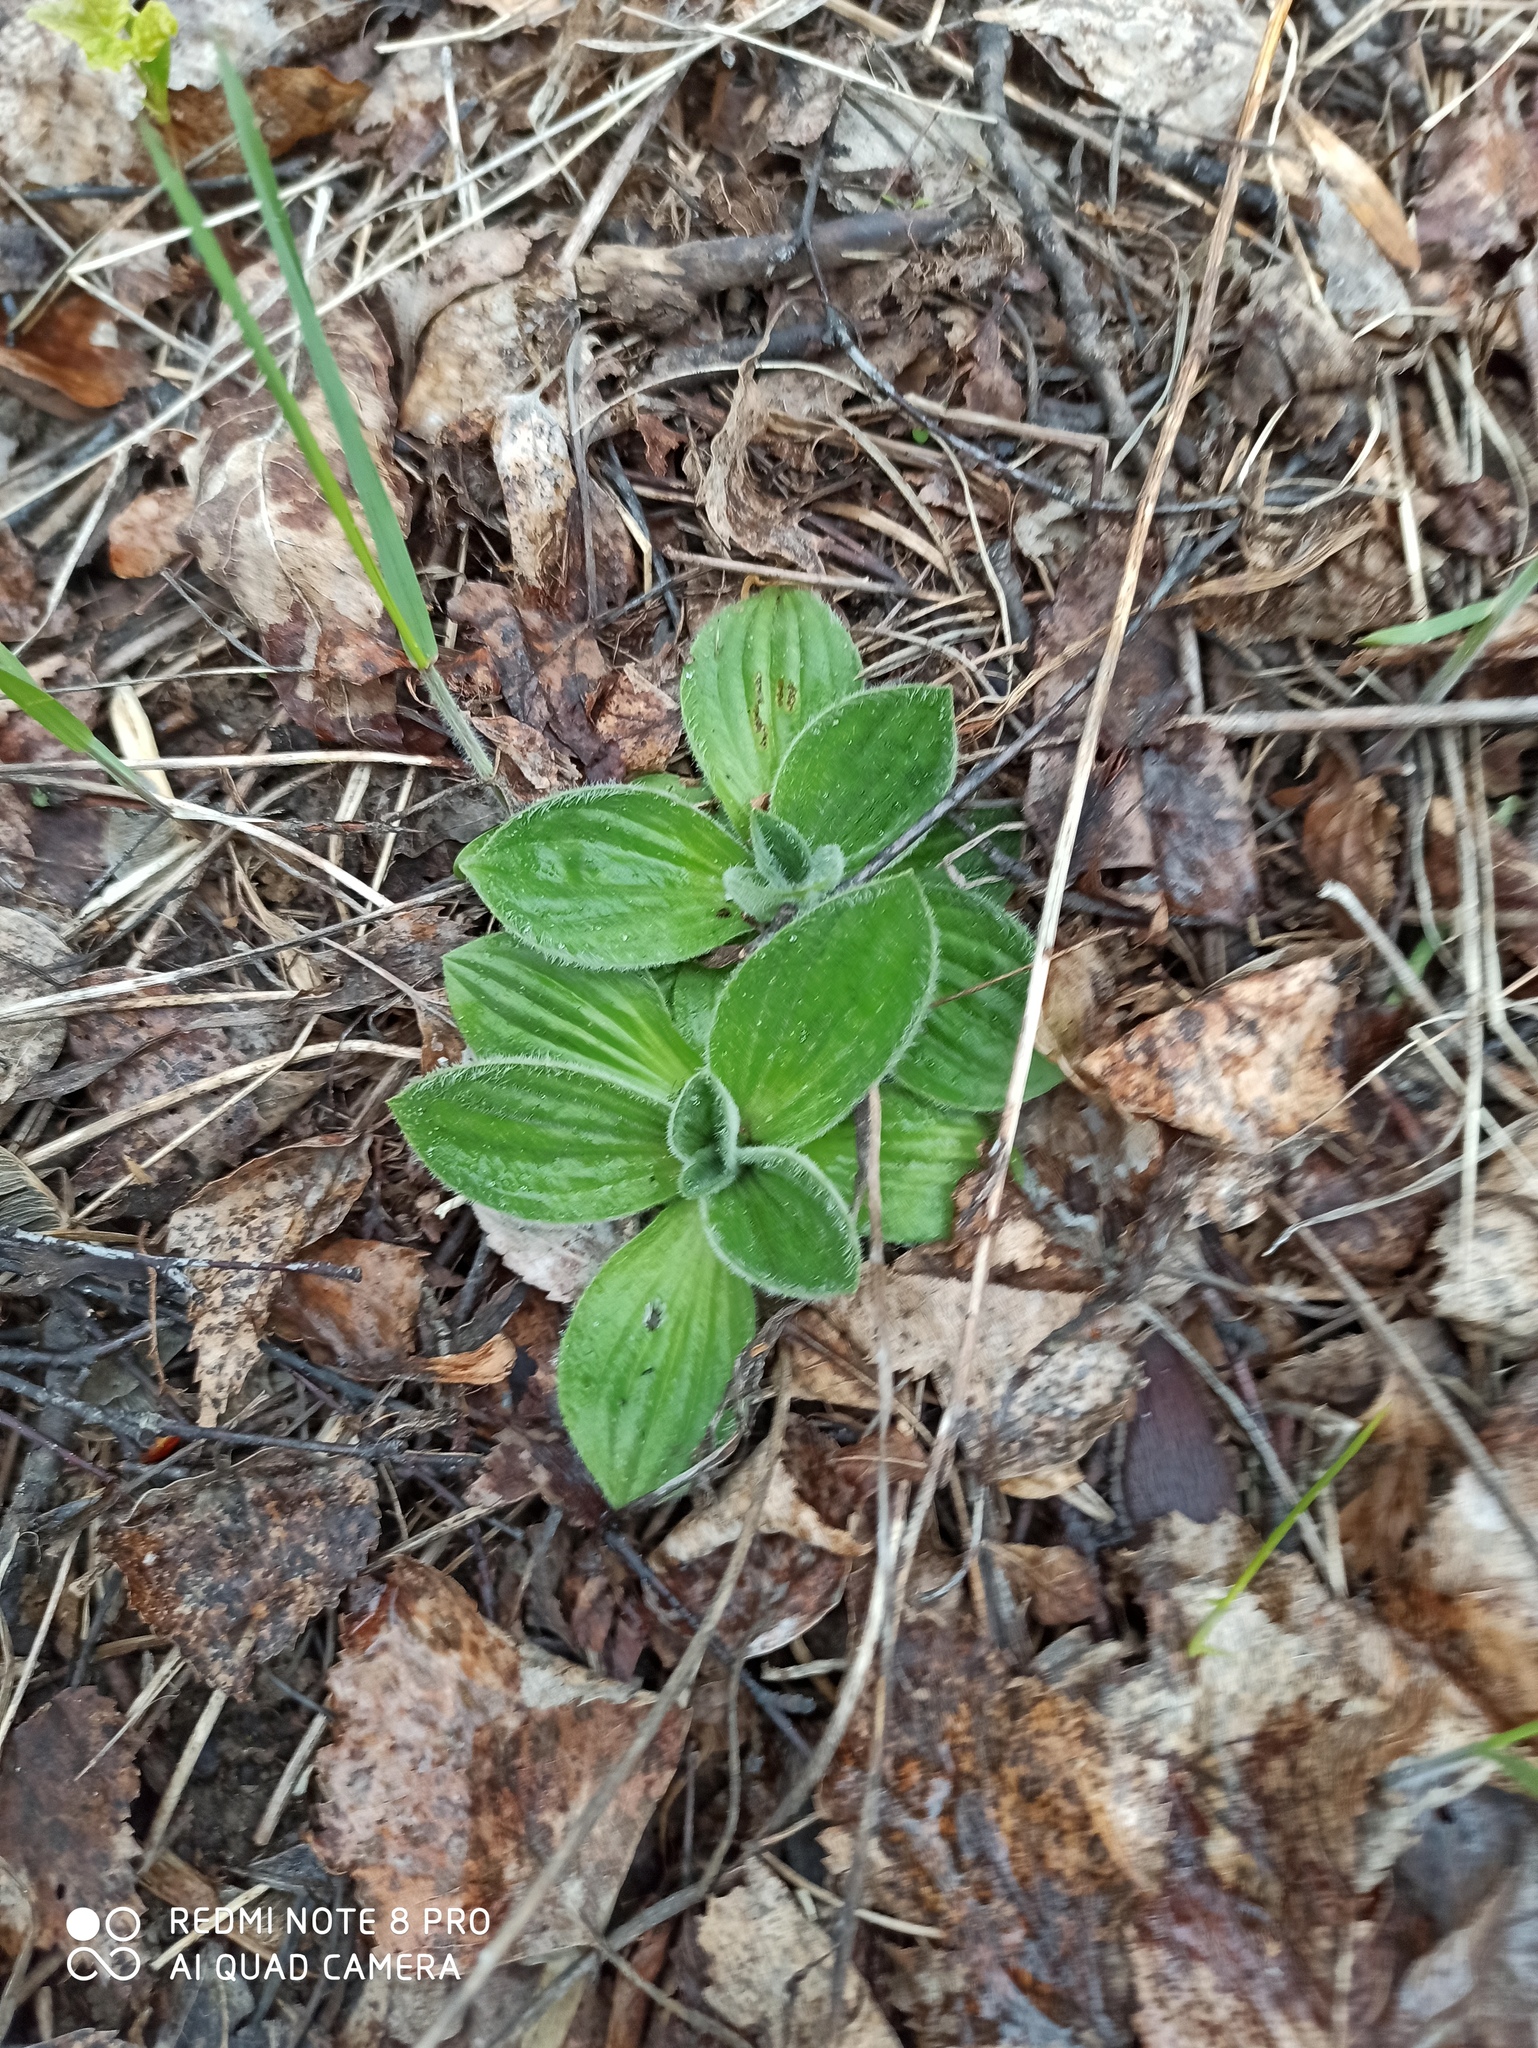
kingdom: Plantae
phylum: Tracheophyta
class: Magnoliopsida
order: Lamiales
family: Plantaginaceae
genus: Plantago
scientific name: Plantago media
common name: Hoary plantain
